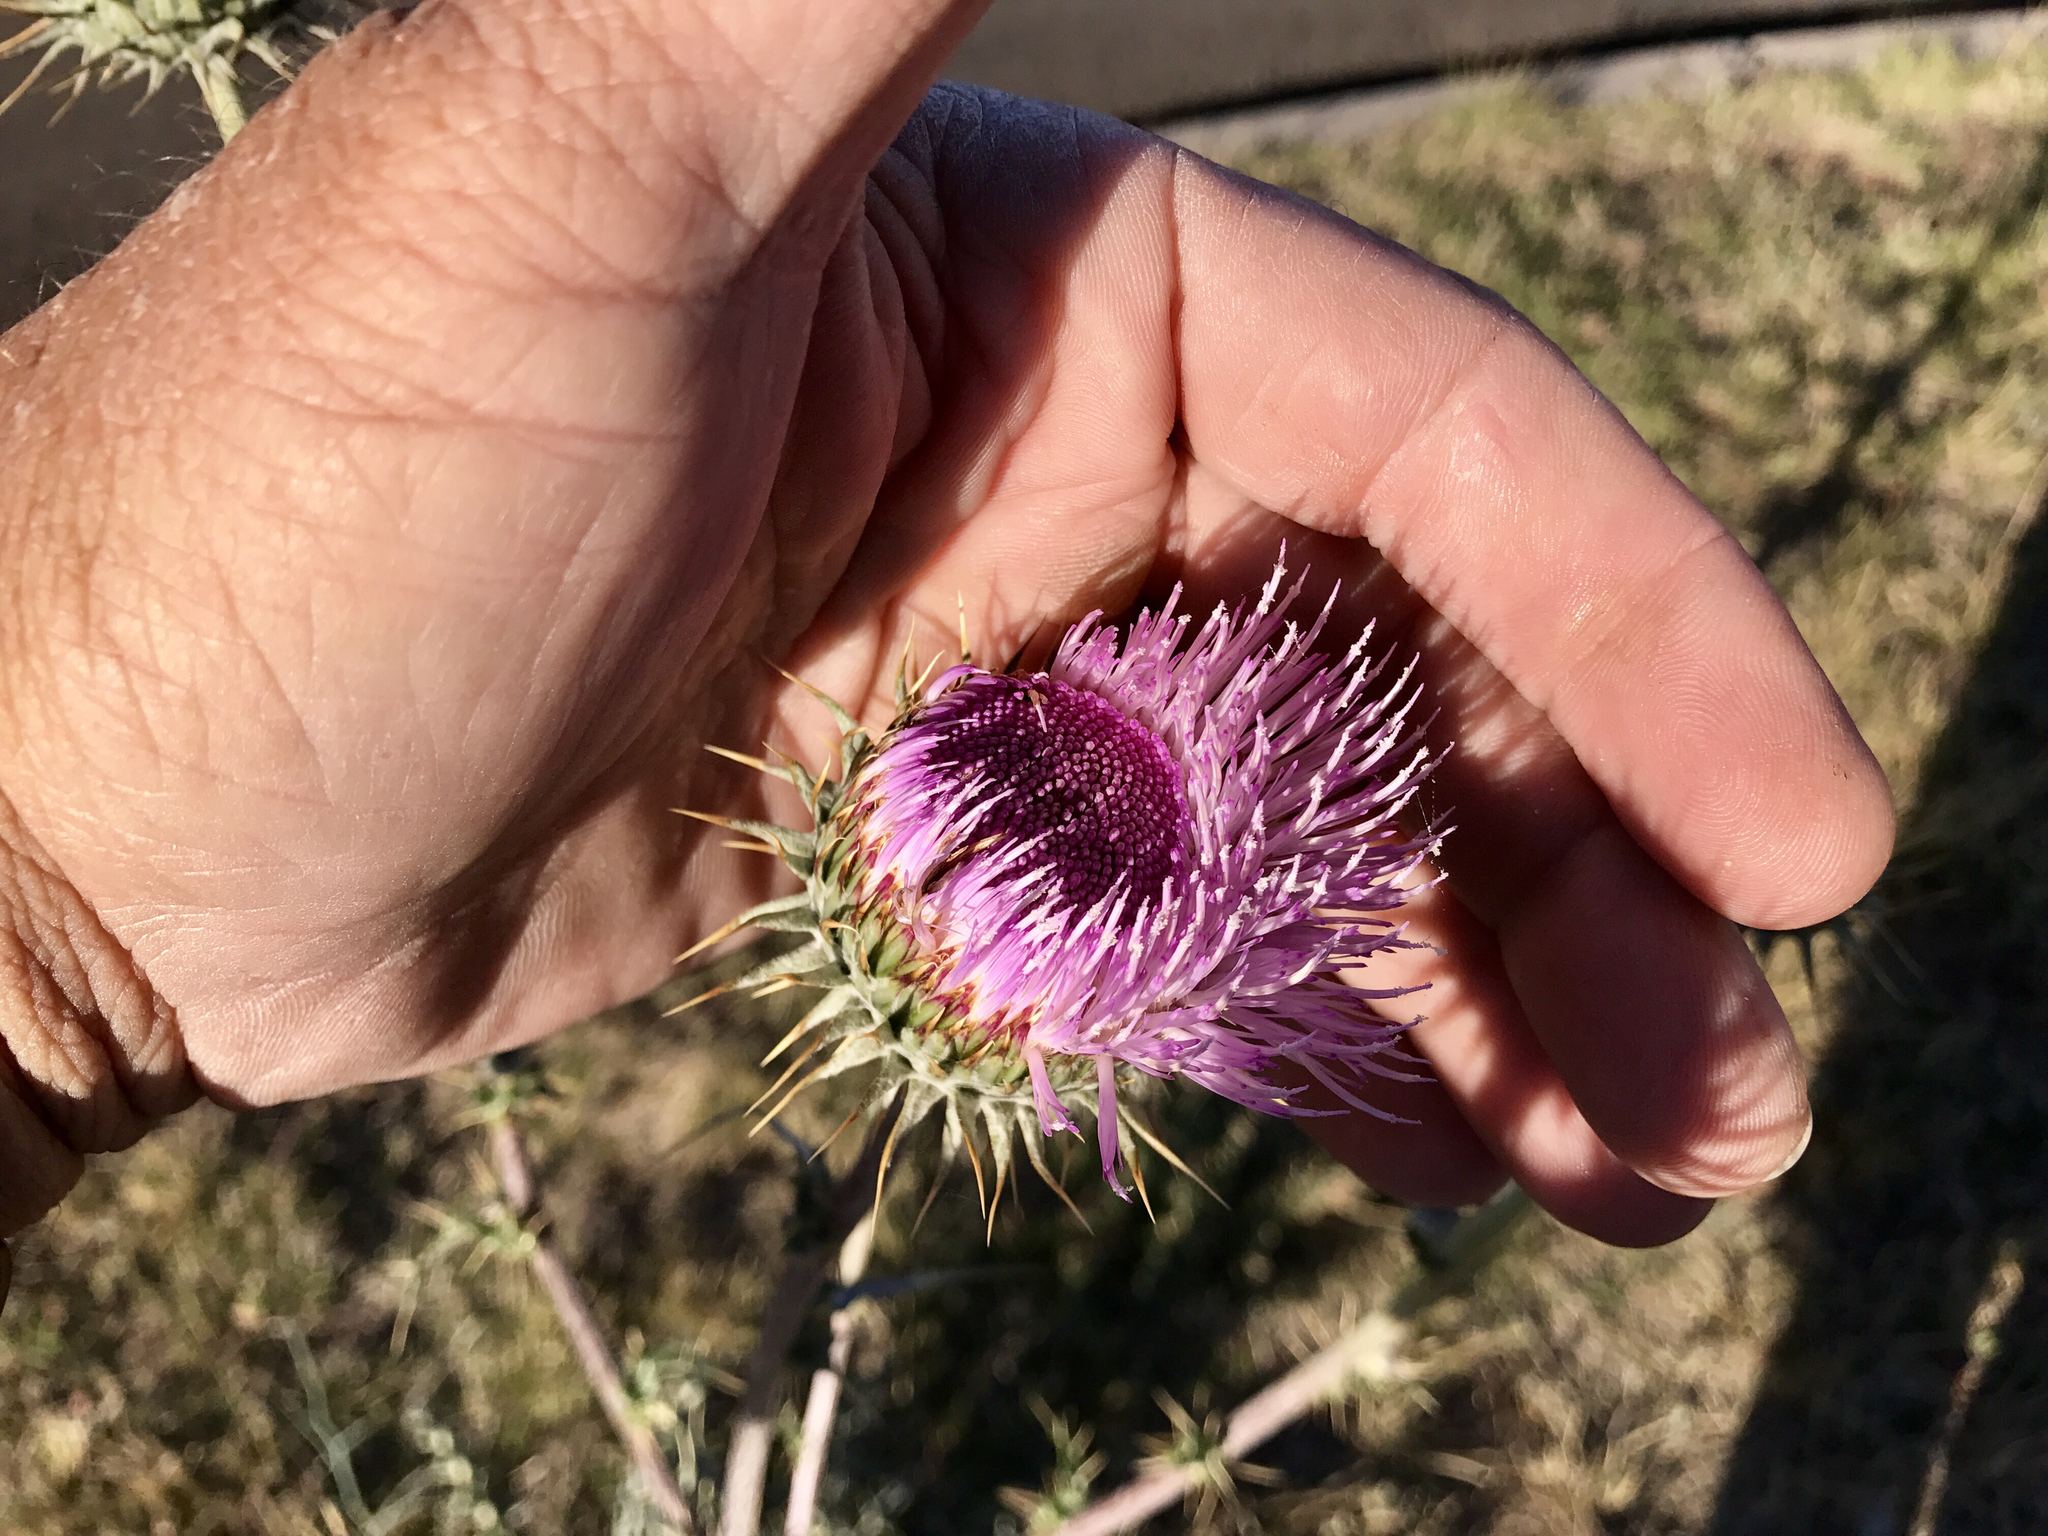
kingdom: Plantae
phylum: Tracheophyta
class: Magnoliopsida
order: Asterales
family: Asteraceae
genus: Cirsium
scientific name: Cirsium neomexicanum
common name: New mexico thistle
